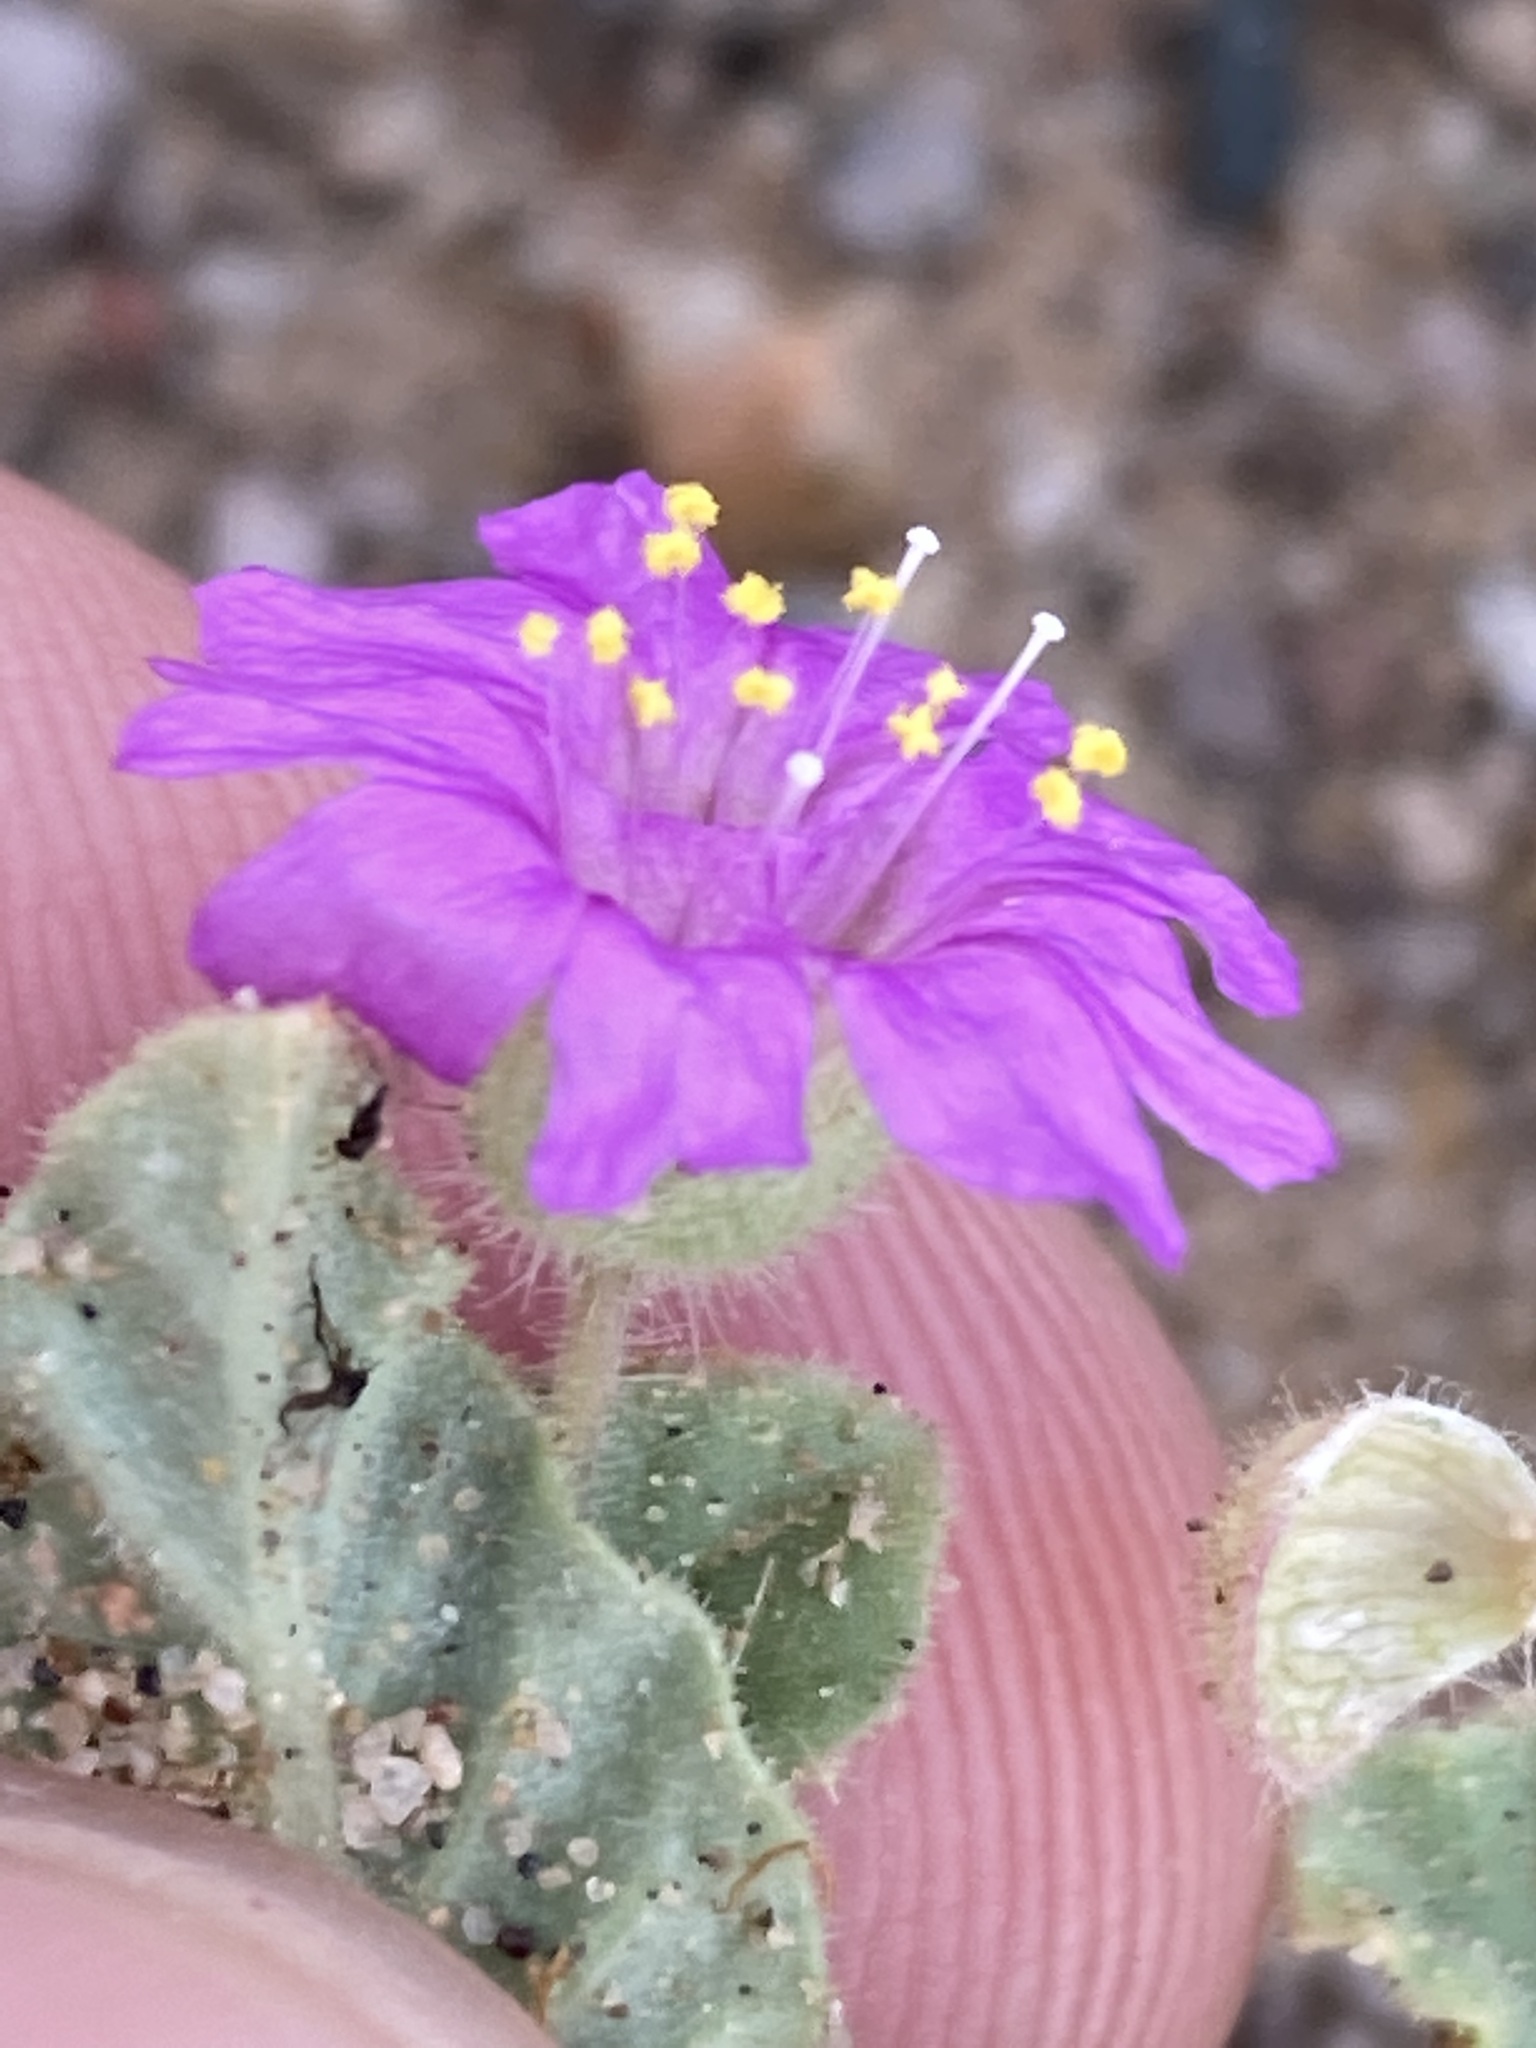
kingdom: Plantae
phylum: Tracheophyta
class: Magnoliopsida
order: Caryophyllales
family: Nyctaginaceae
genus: Allionia
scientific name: Allionia incarnata
